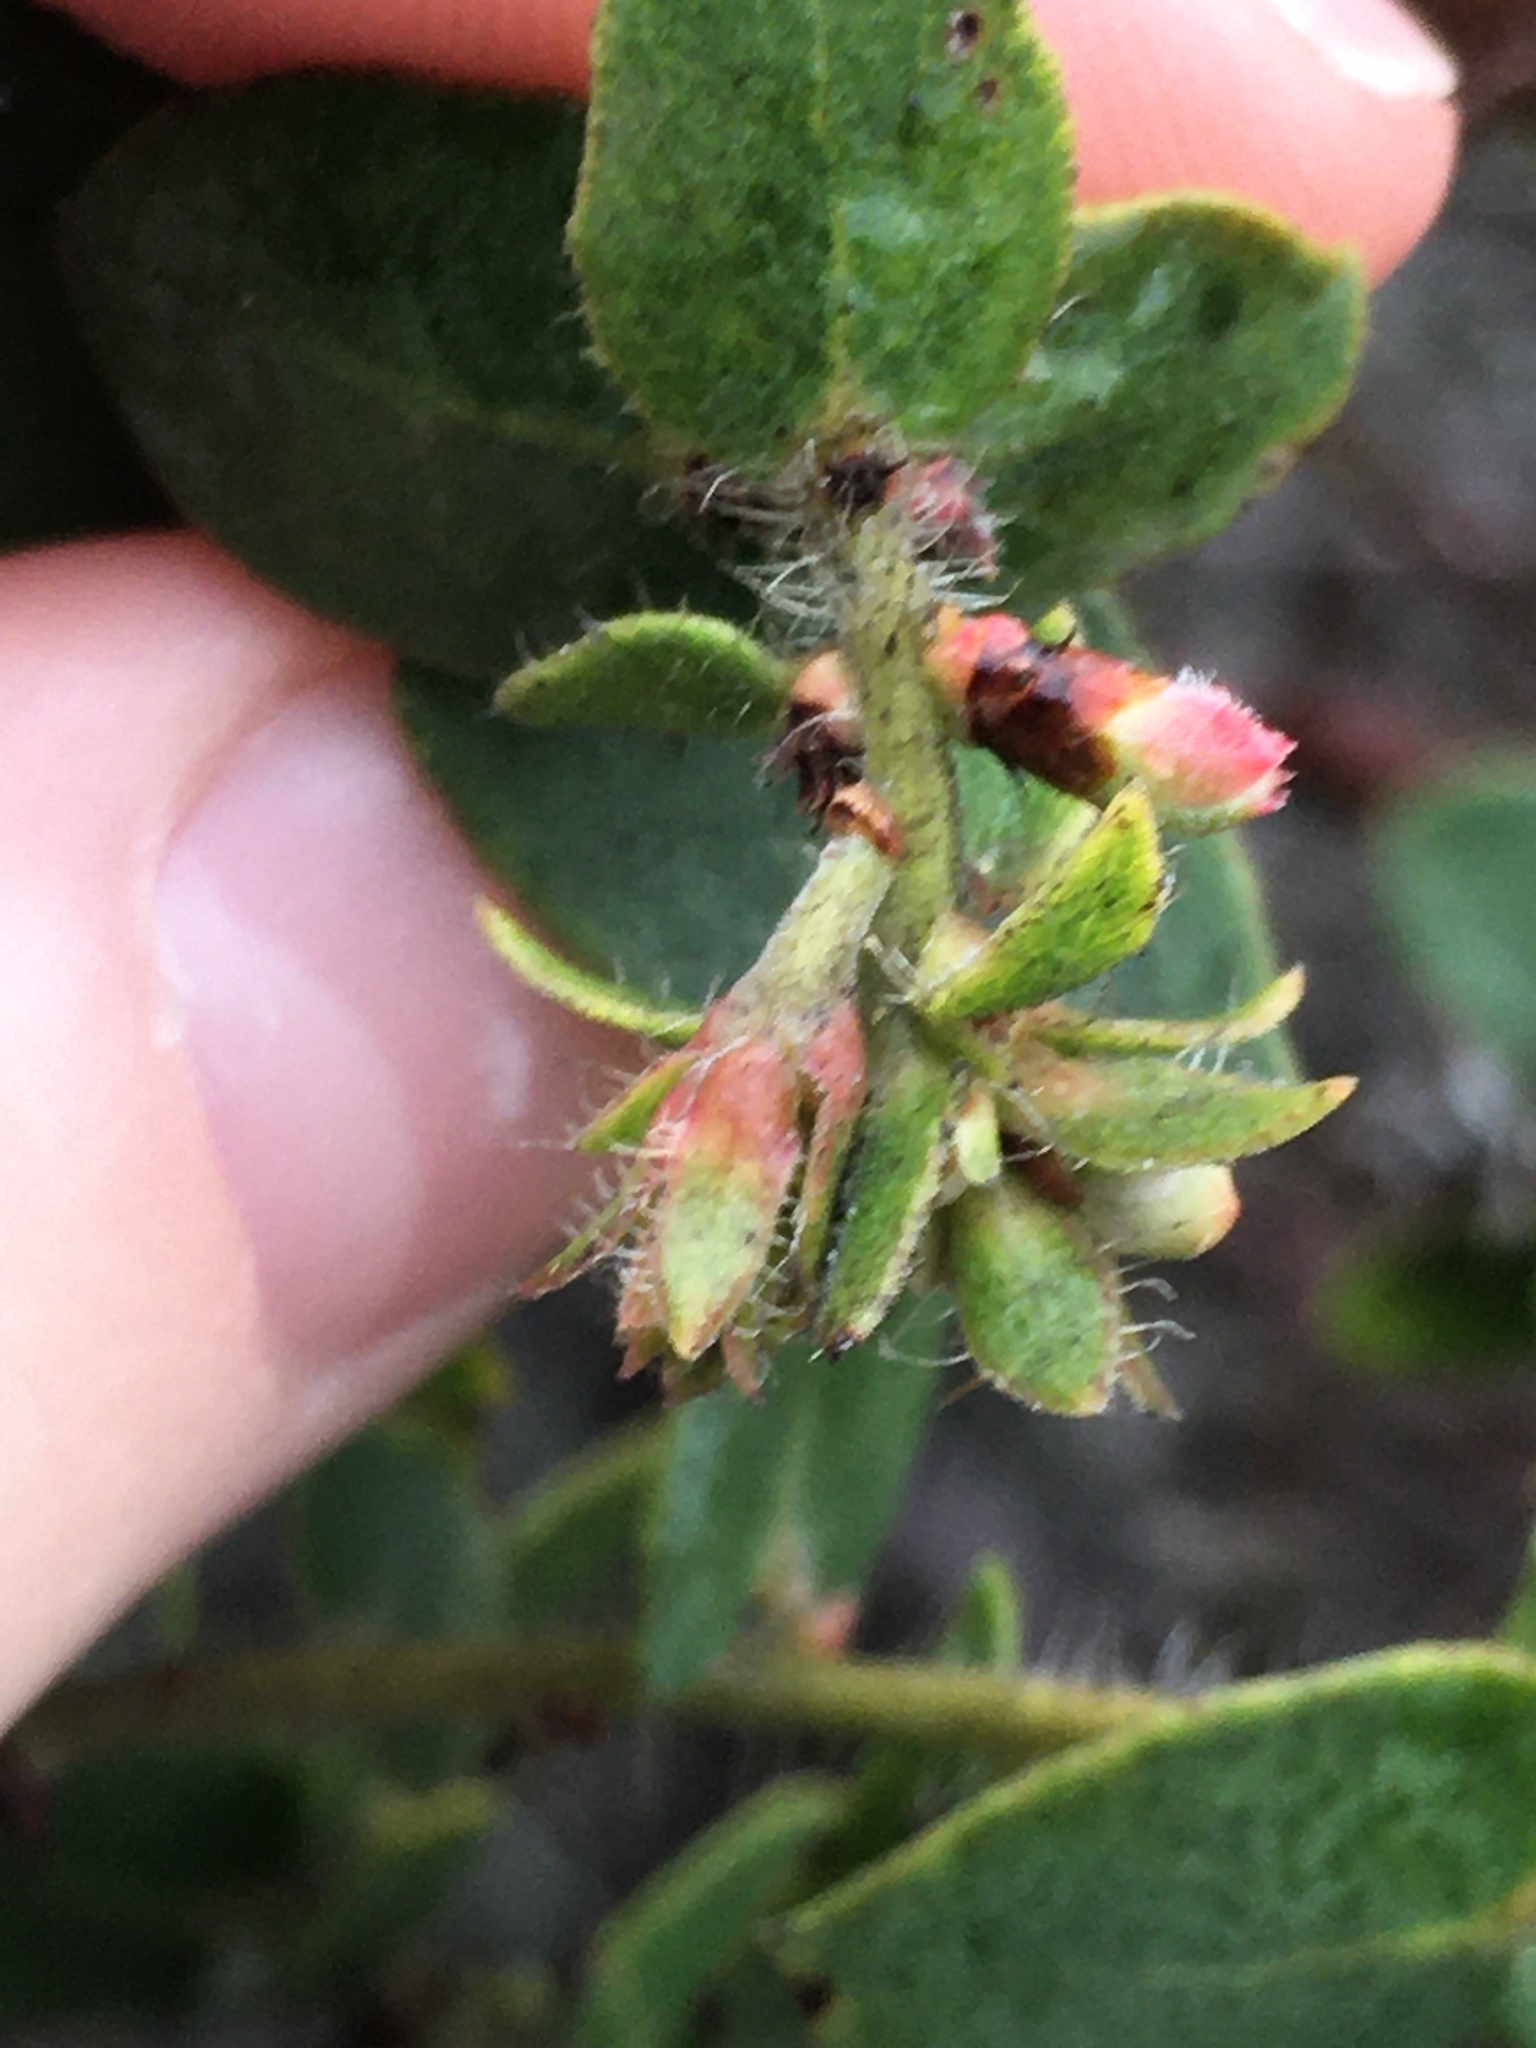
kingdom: Plantae
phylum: Tracheophyta
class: Magnoliopsida
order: Ericales
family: Ericaceae
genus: Arctostaphylos
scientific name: Arctostaphylos purissima
